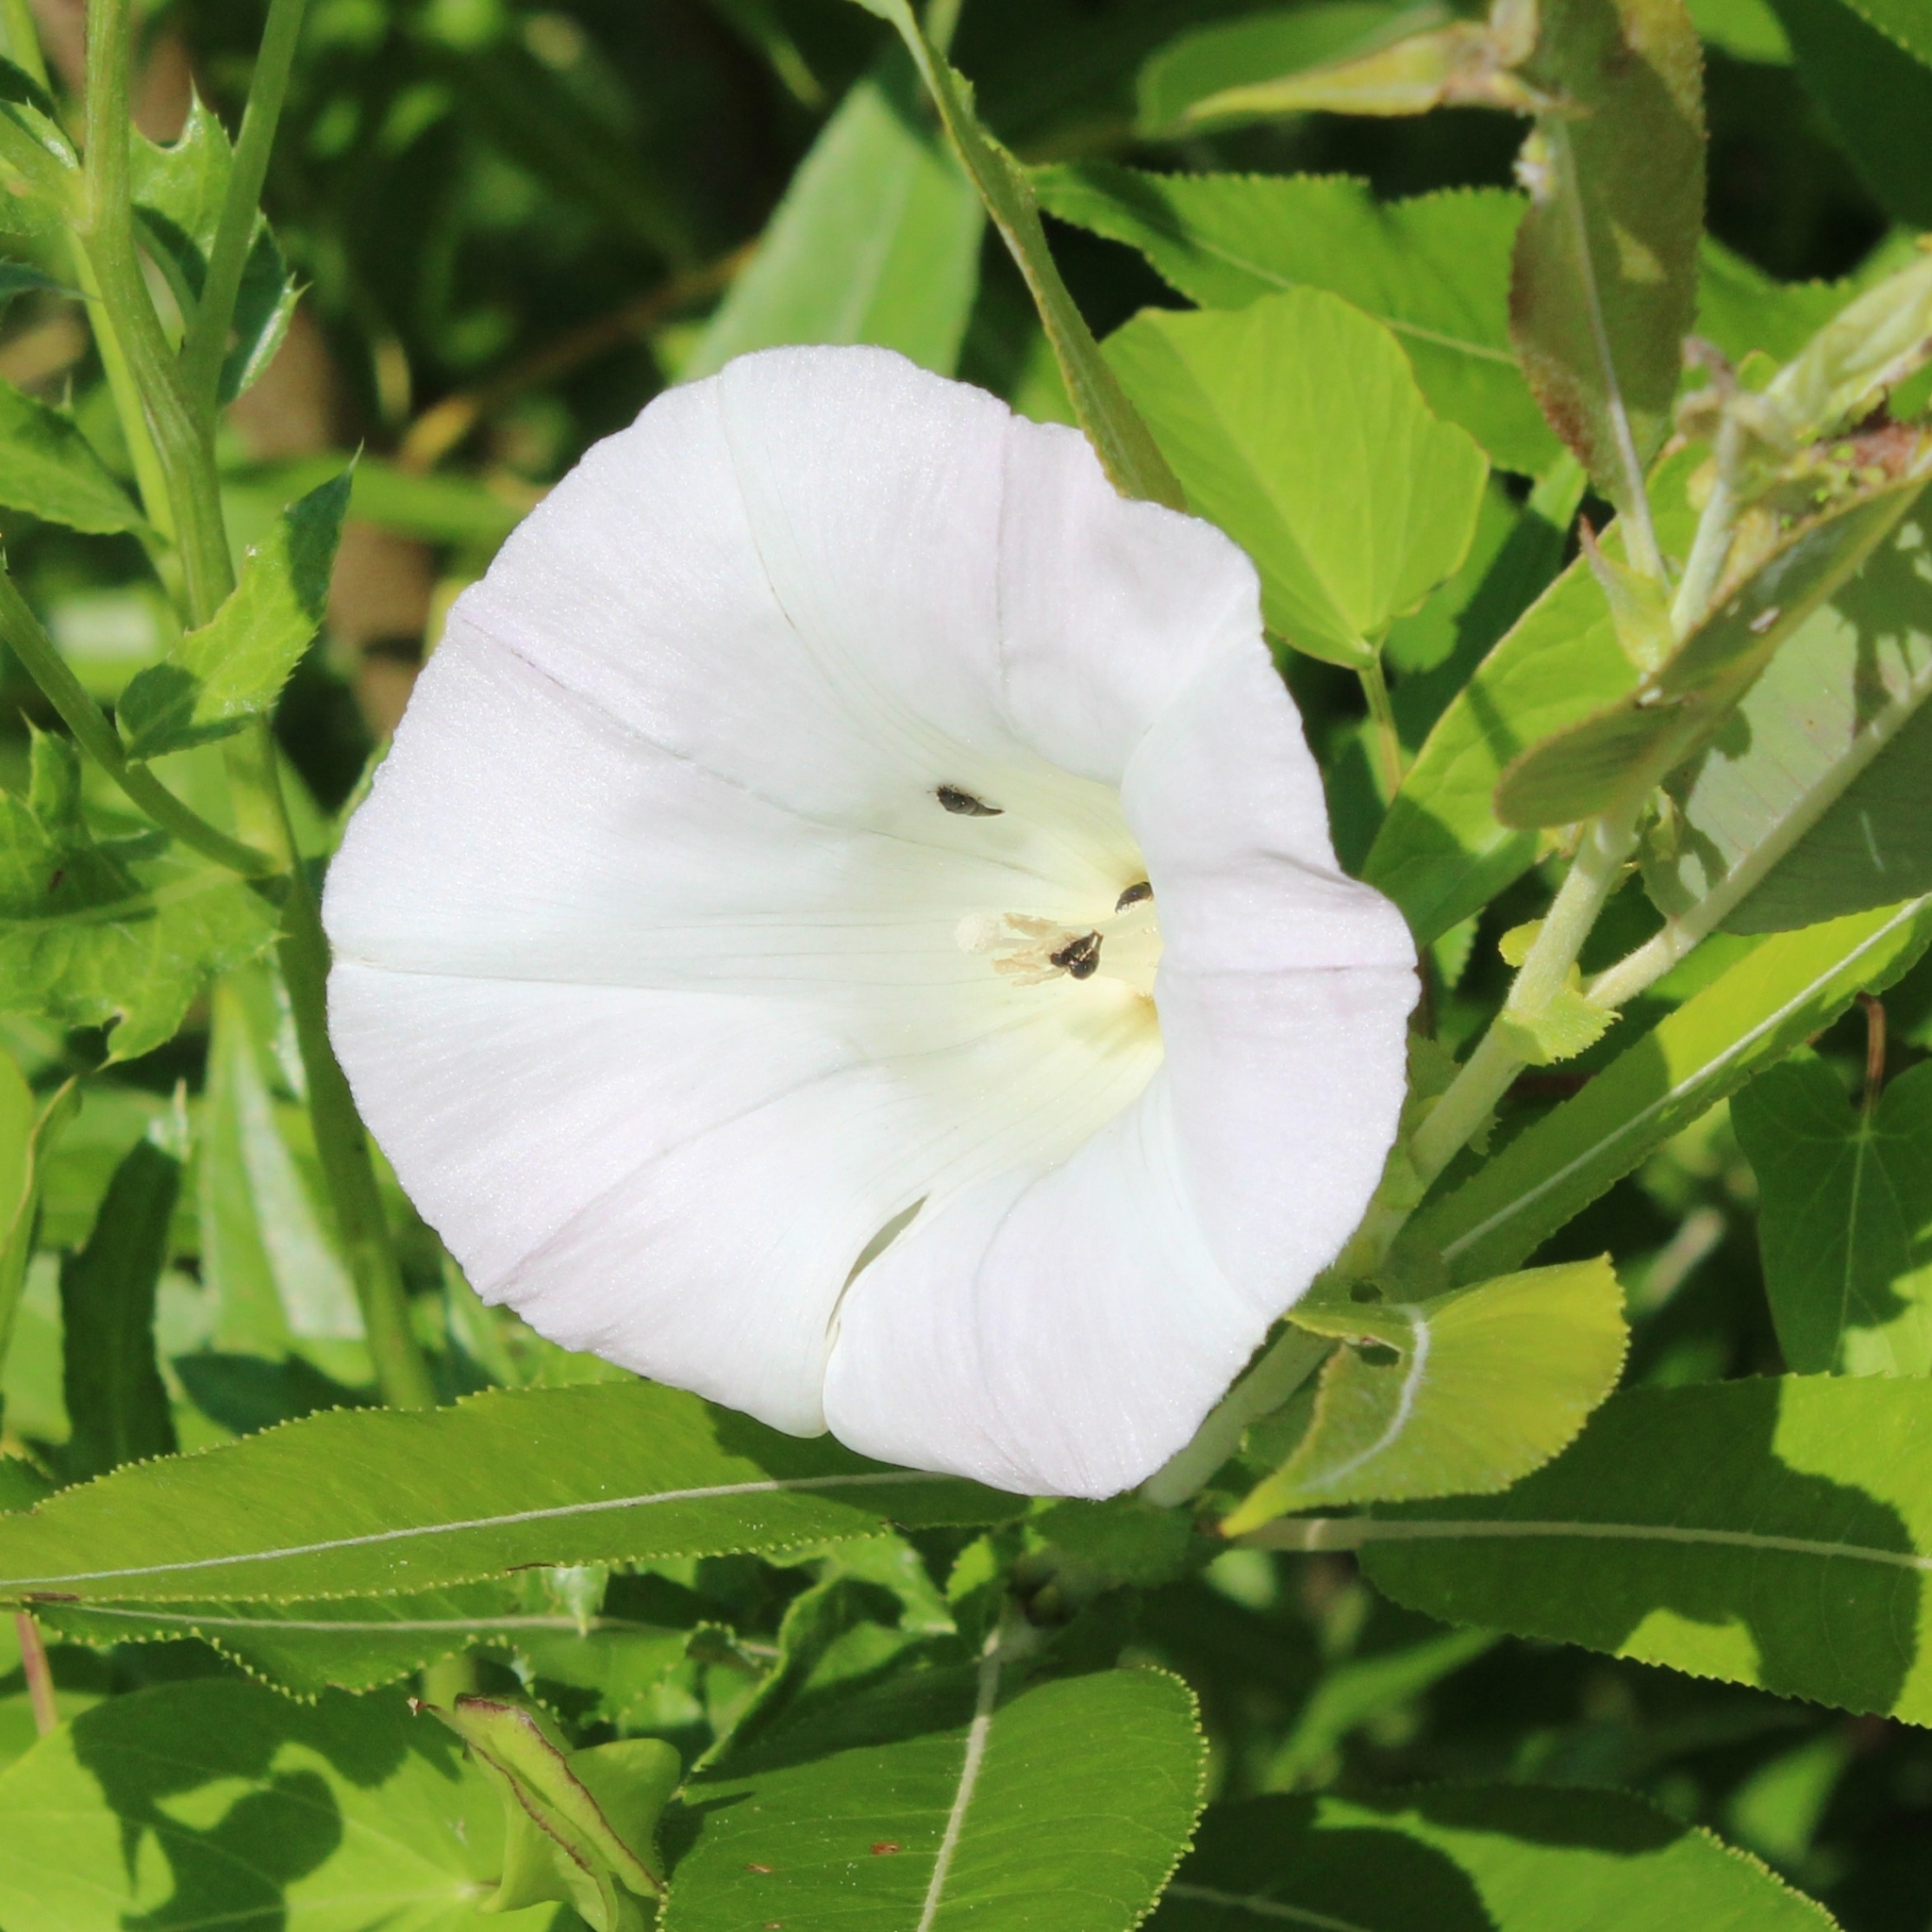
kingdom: Plantae
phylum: Tracheophyta
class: Magnoliopsida
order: Solanales
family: Convolvulaceae
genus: Calystegia
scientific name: Calystegia sepium
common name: Hedge bindweed
